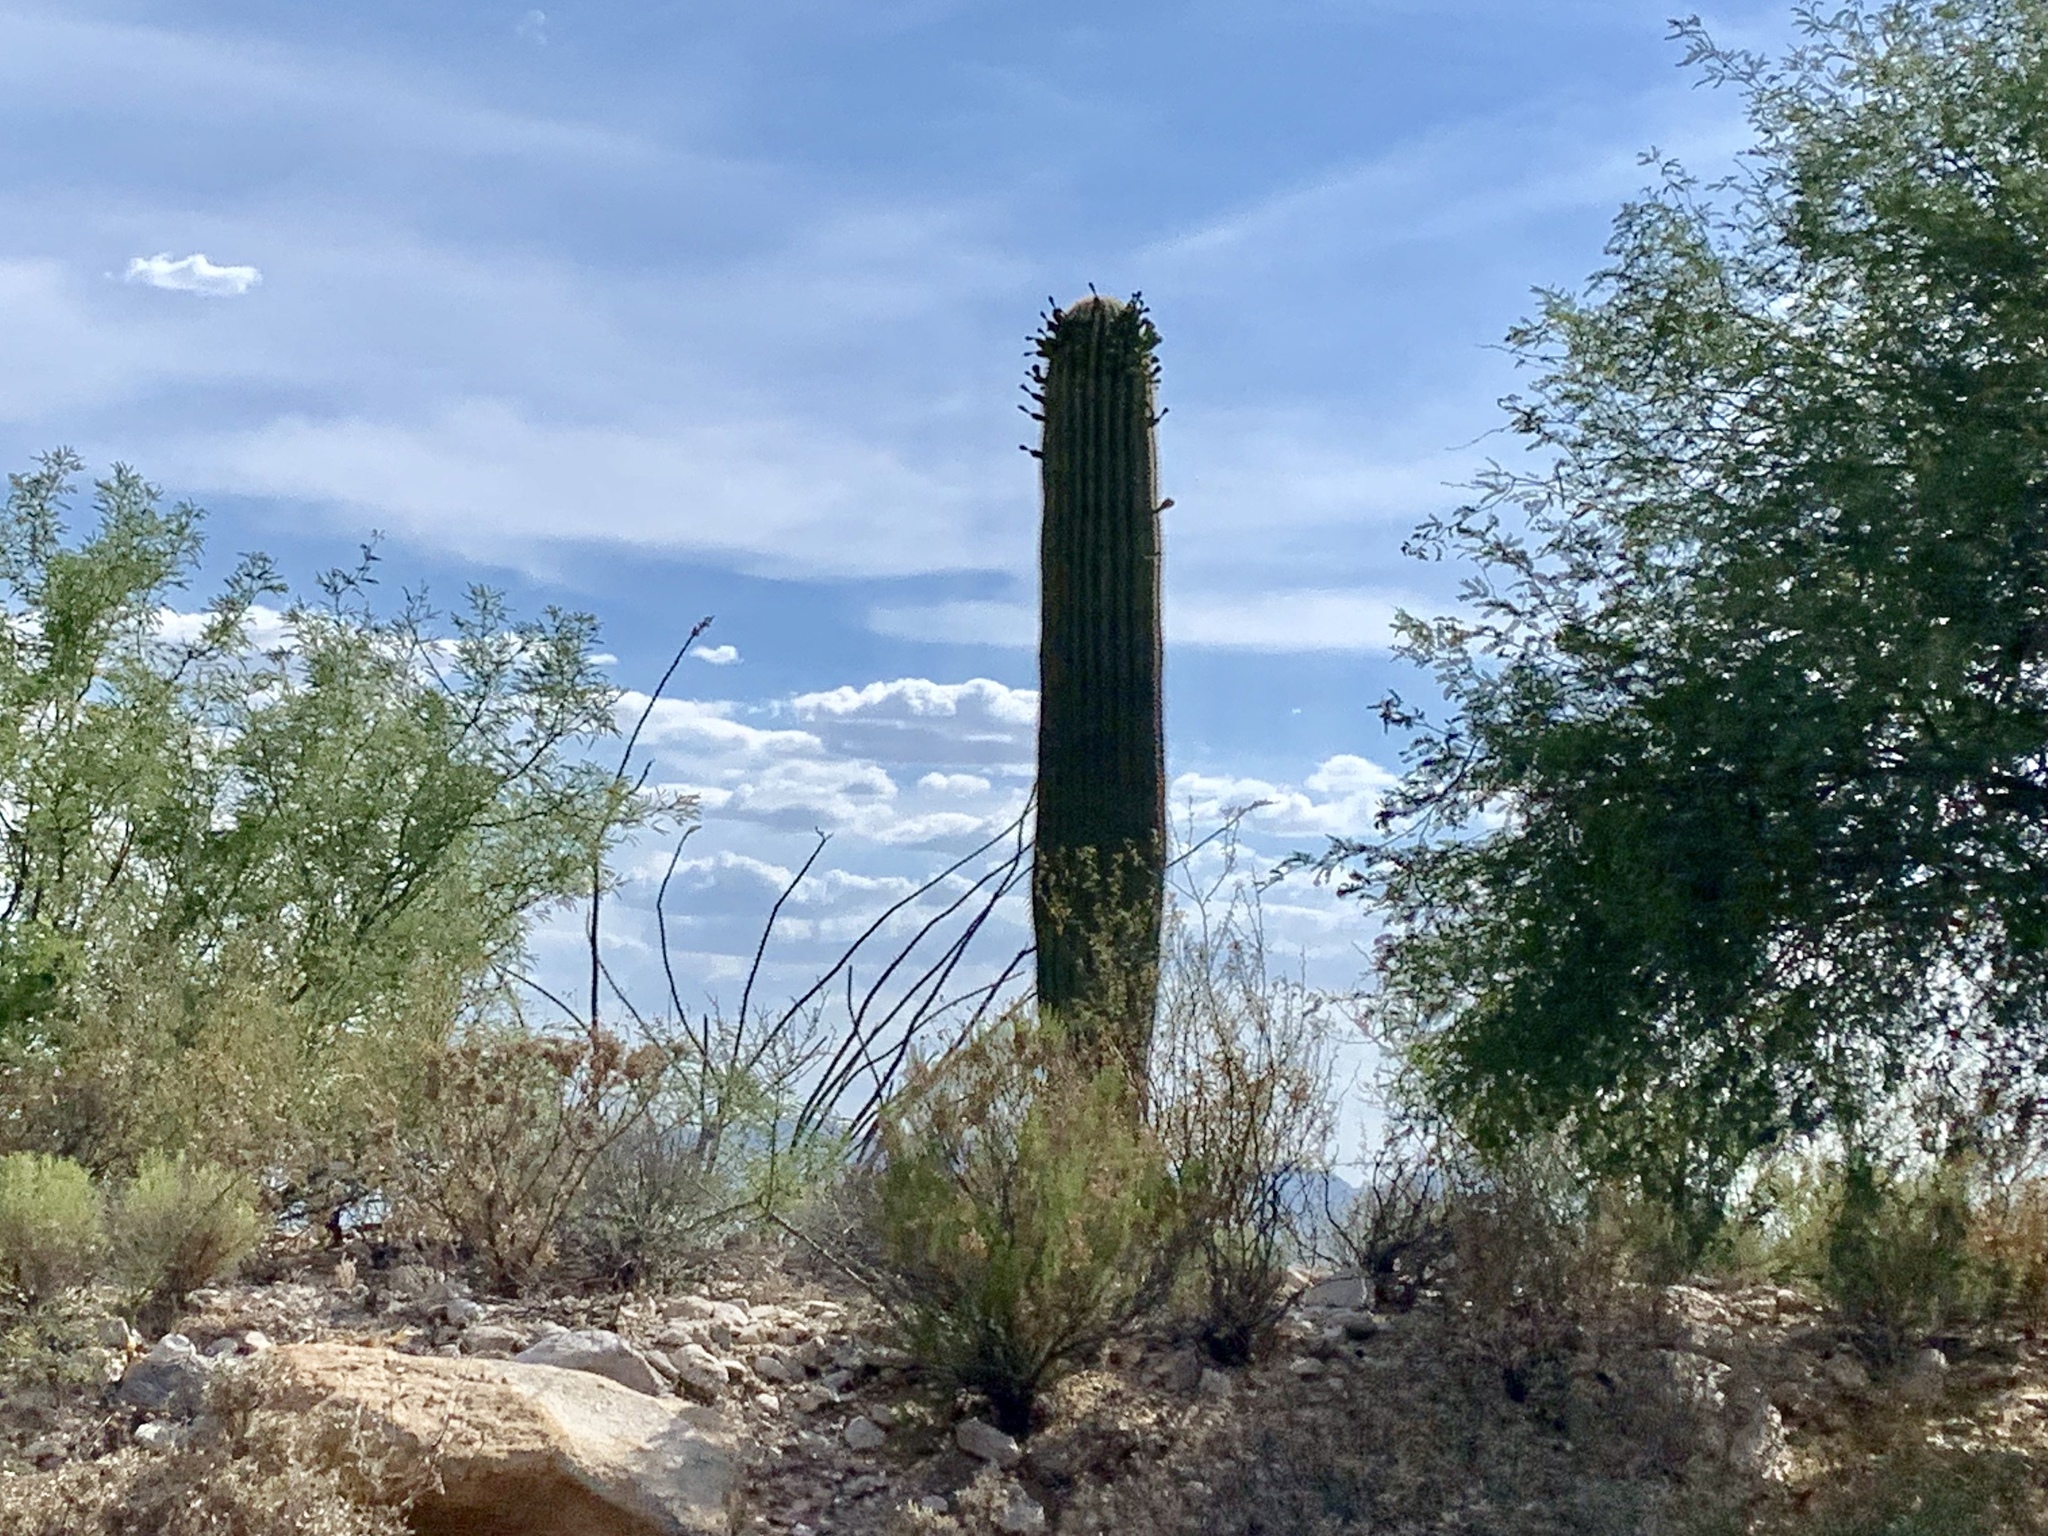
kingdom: Plantae
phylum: Tracheophyta
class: Magnoliopsida
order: Caryophyllales
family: Cactaceae
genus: Carnegiea
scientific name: Carnegiea gigantea
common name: Saguaro
